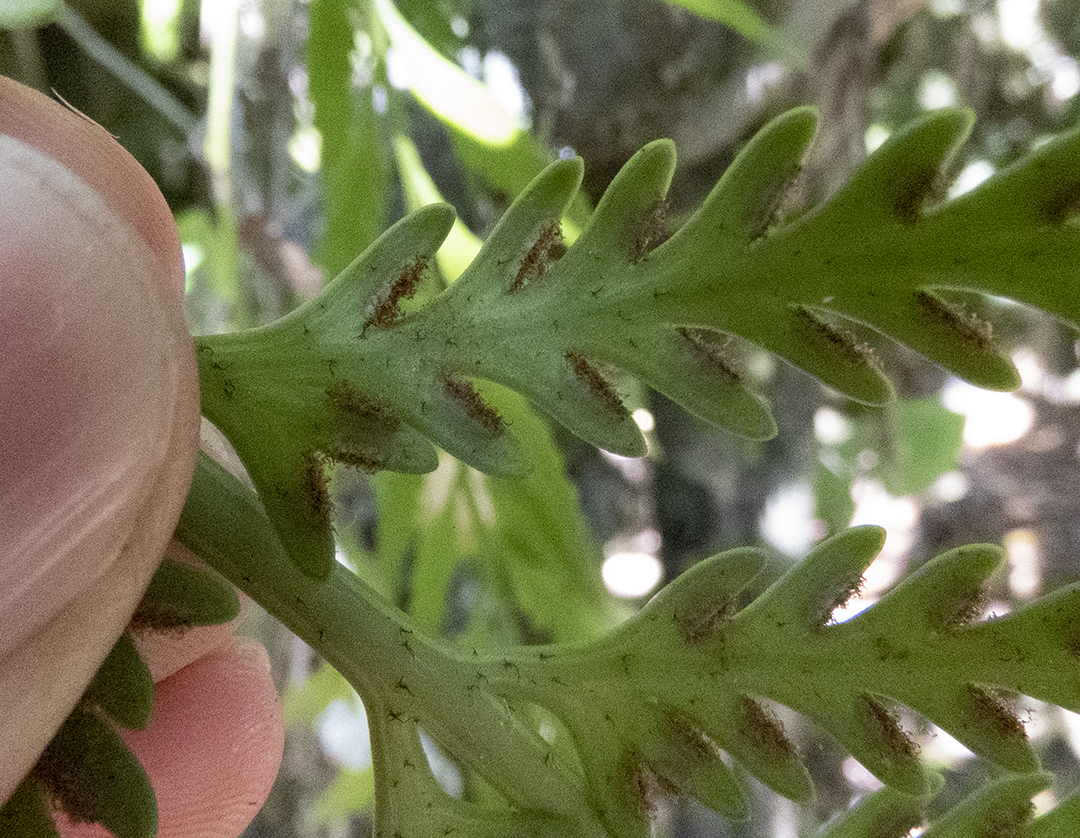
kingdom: Plantae
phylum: Tracheophyta
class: Polypodiopsida
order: Polypodiales
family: Aspleniaceae
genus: Asplenium
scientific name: Asplenium flaccidum
